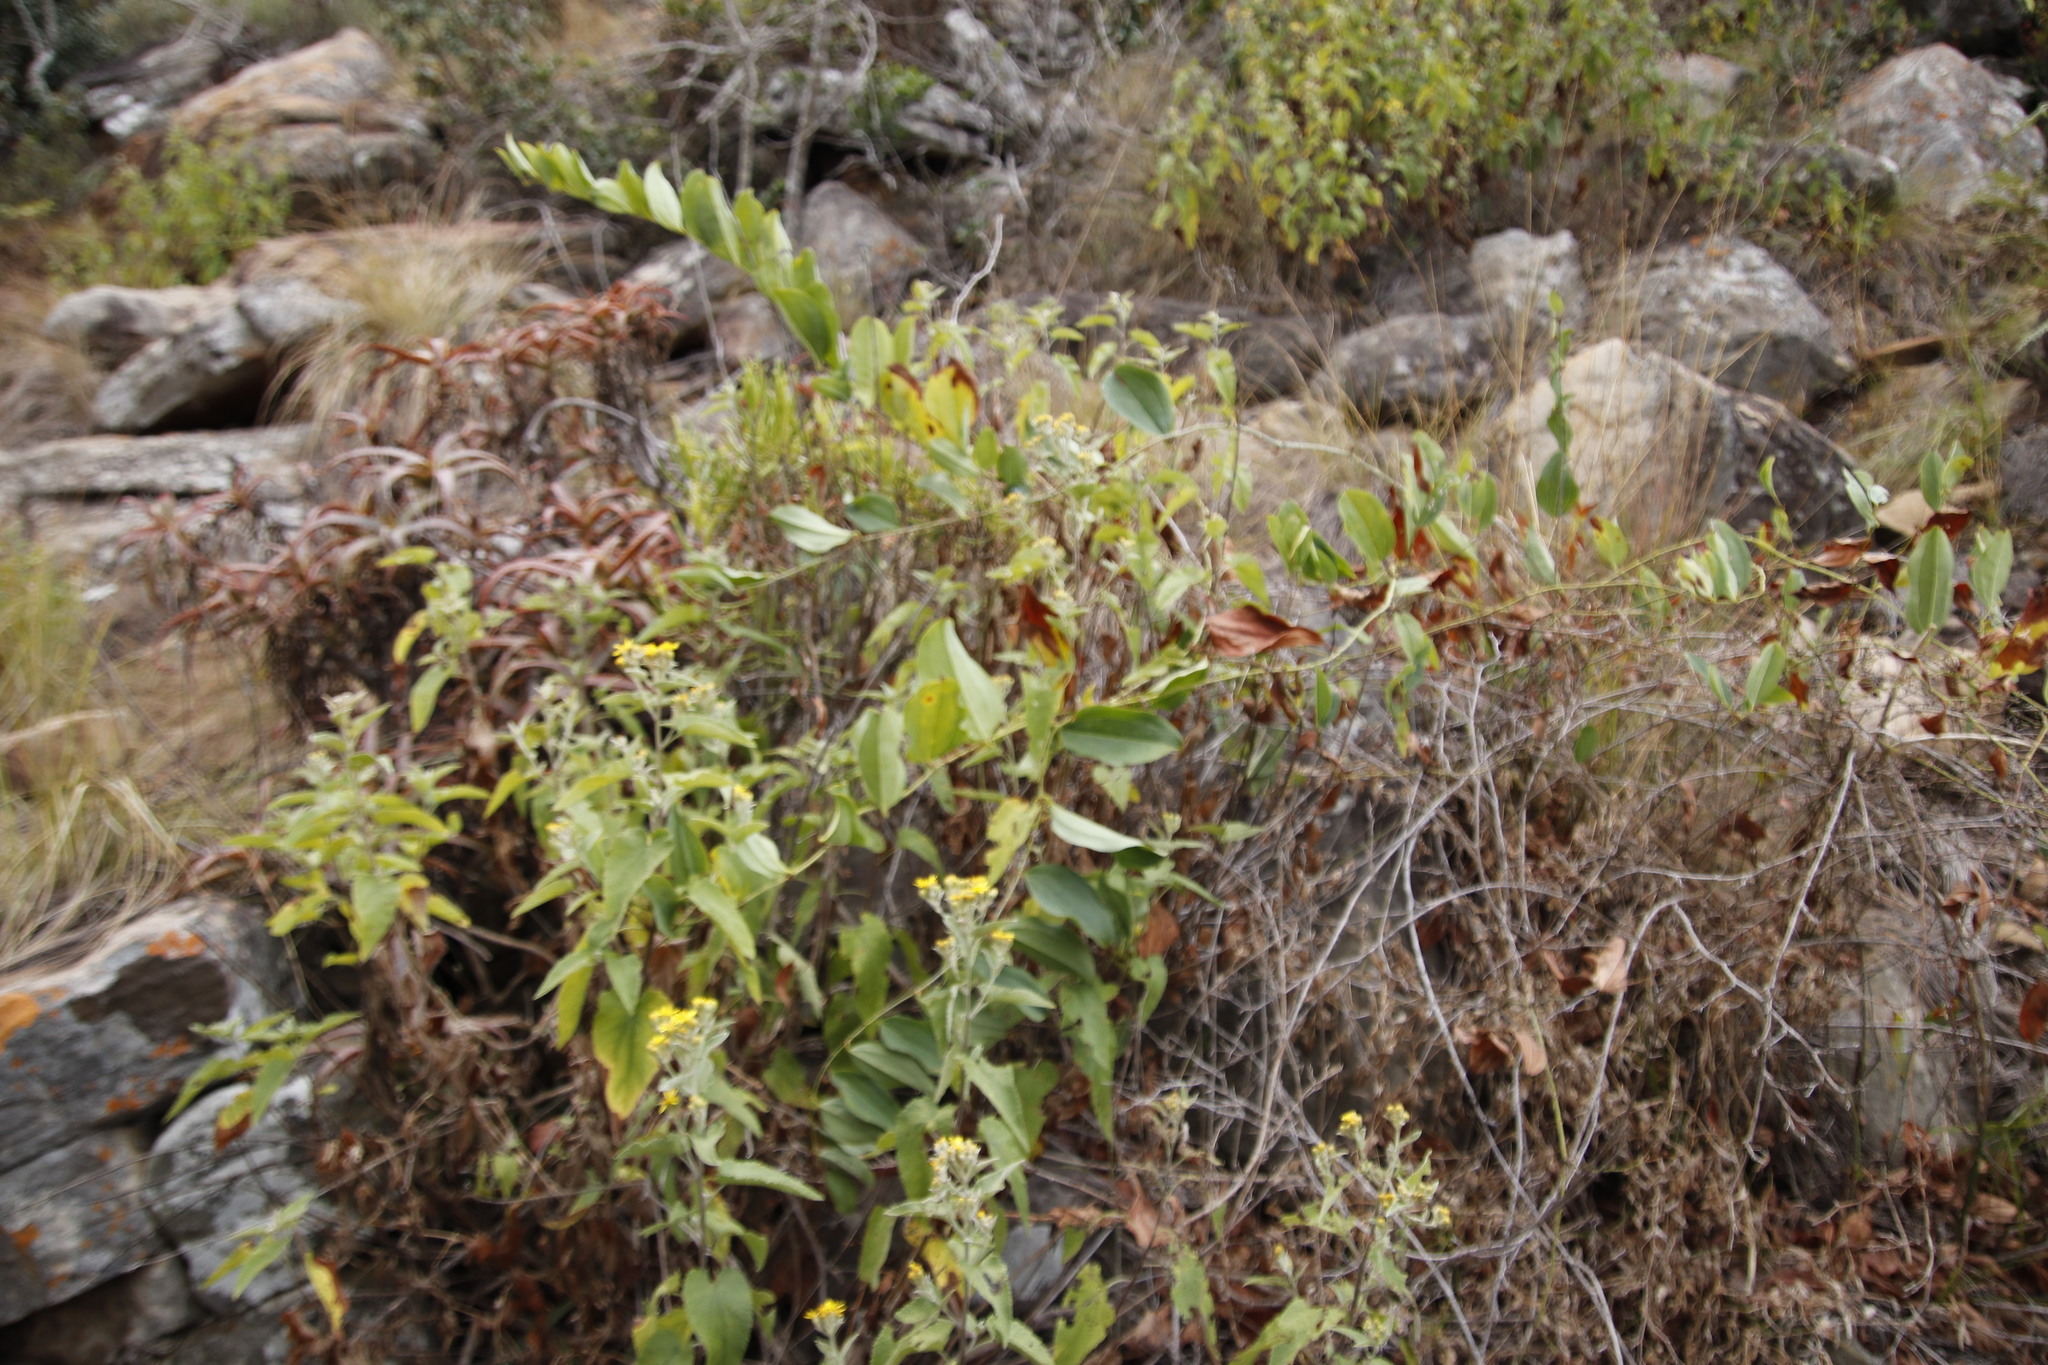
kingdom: Plantae
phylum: Tracheophyta
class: Liliopsida
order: Liliales
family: Smilacaceae
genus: Smilax
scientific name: Smilax anceps
